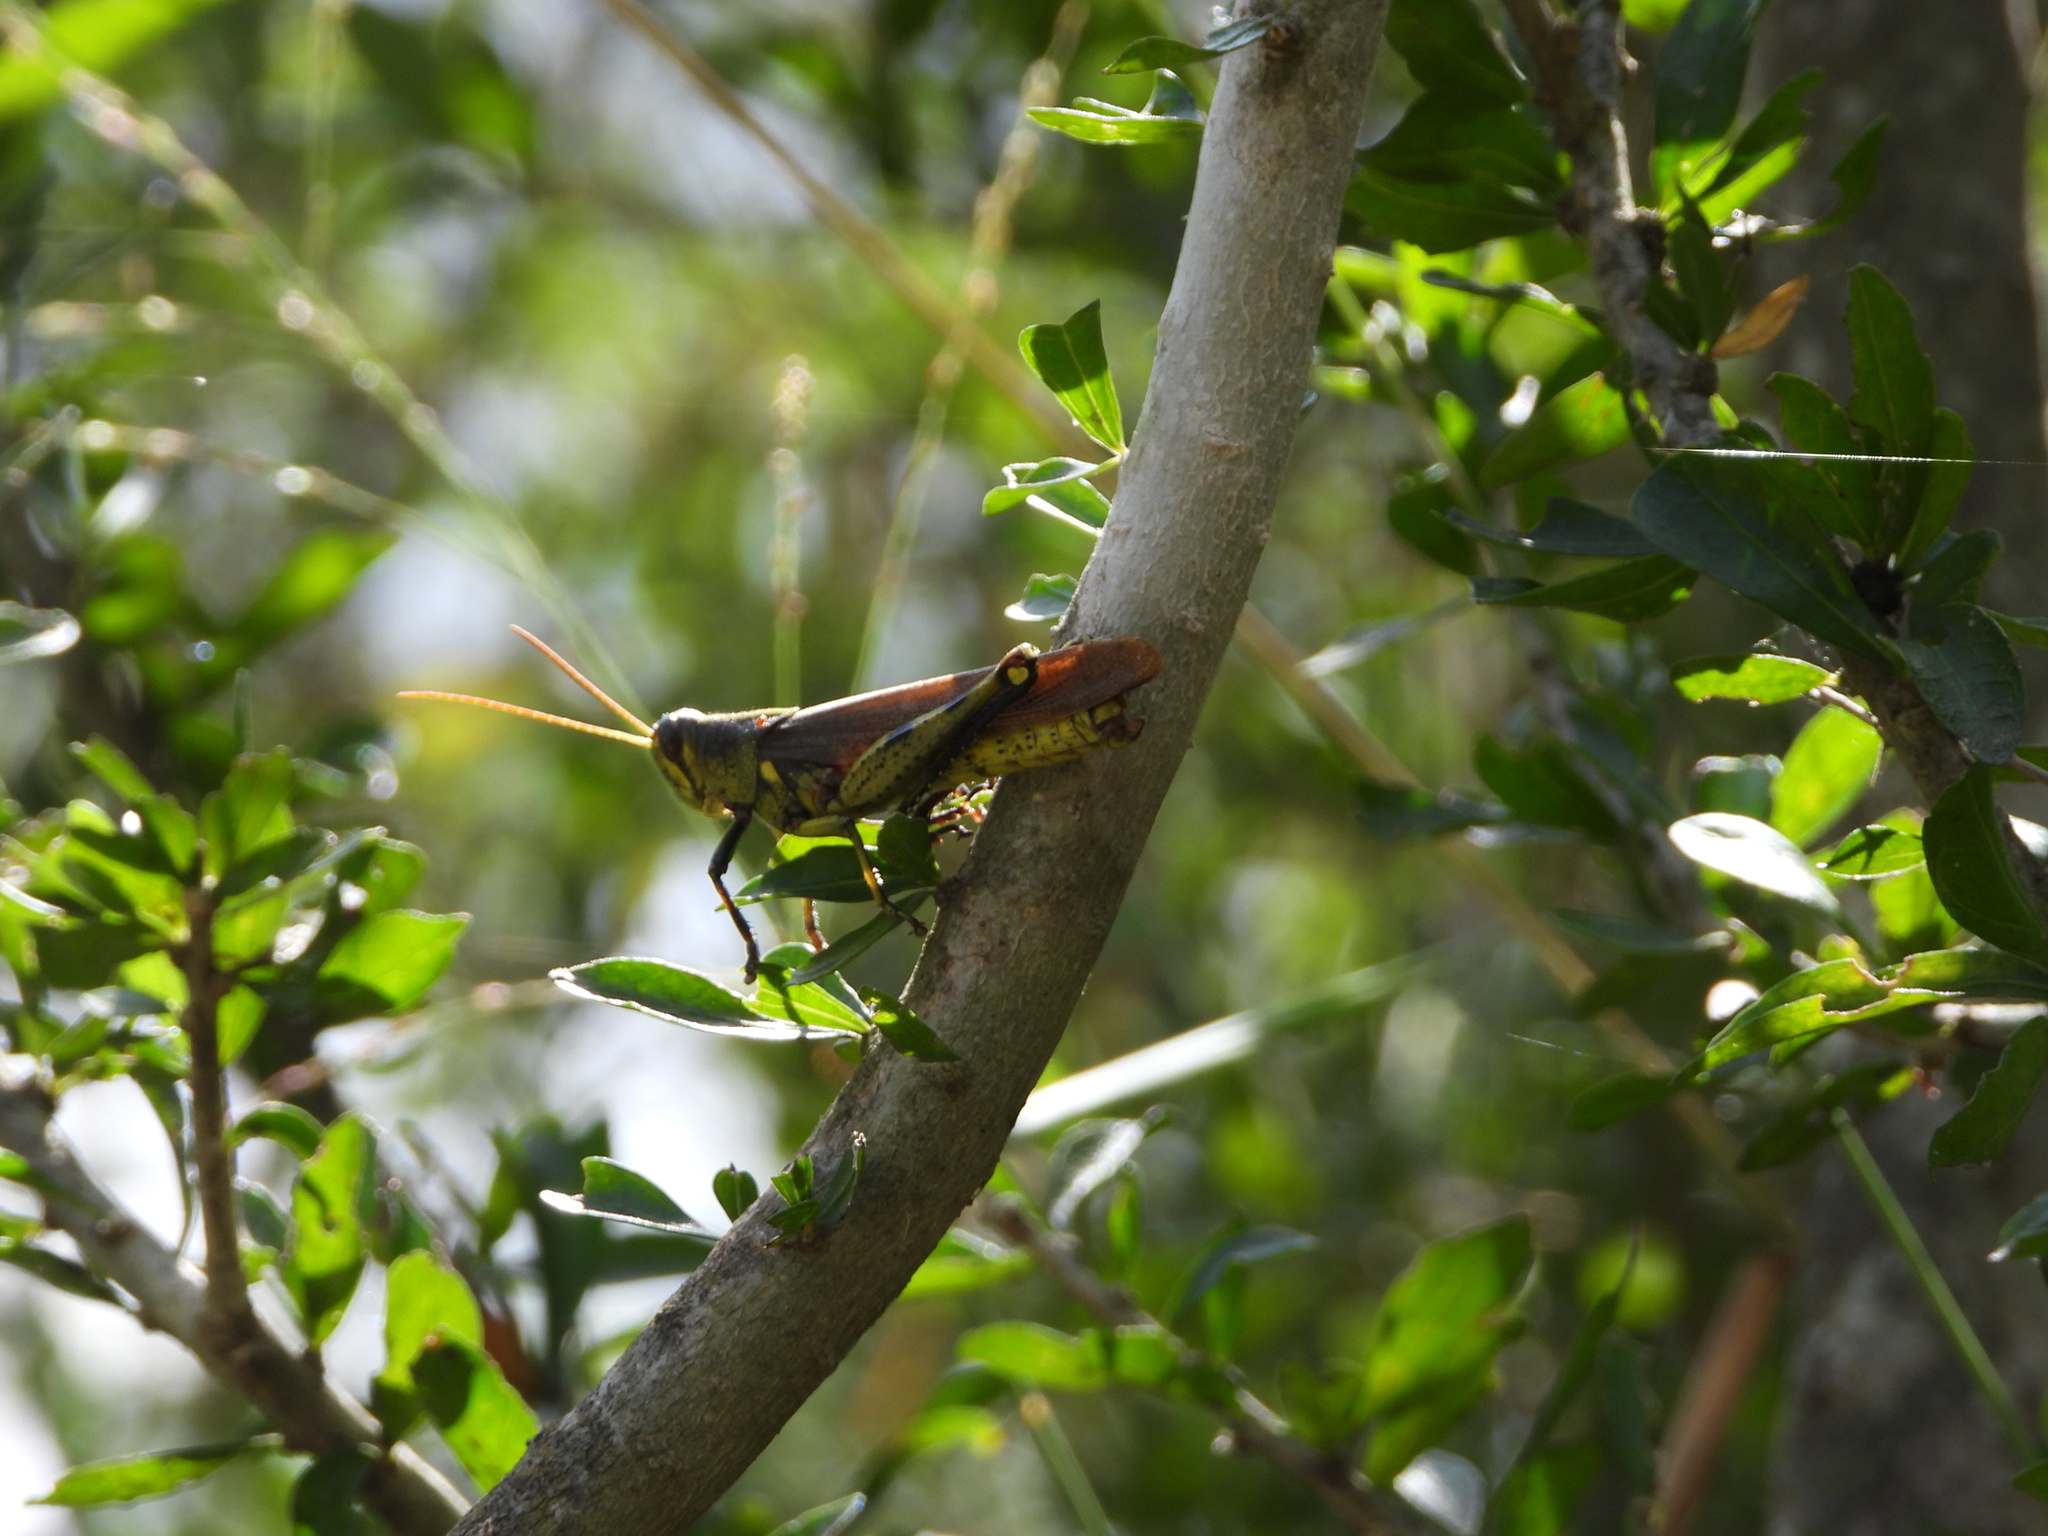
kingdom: Animalia
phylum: Arthropoda
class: Insecta
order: Orthoptera
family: Acrididae
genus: Schistocerca
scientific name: Schistocerca obscura
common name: Obscure bird grasshopper
